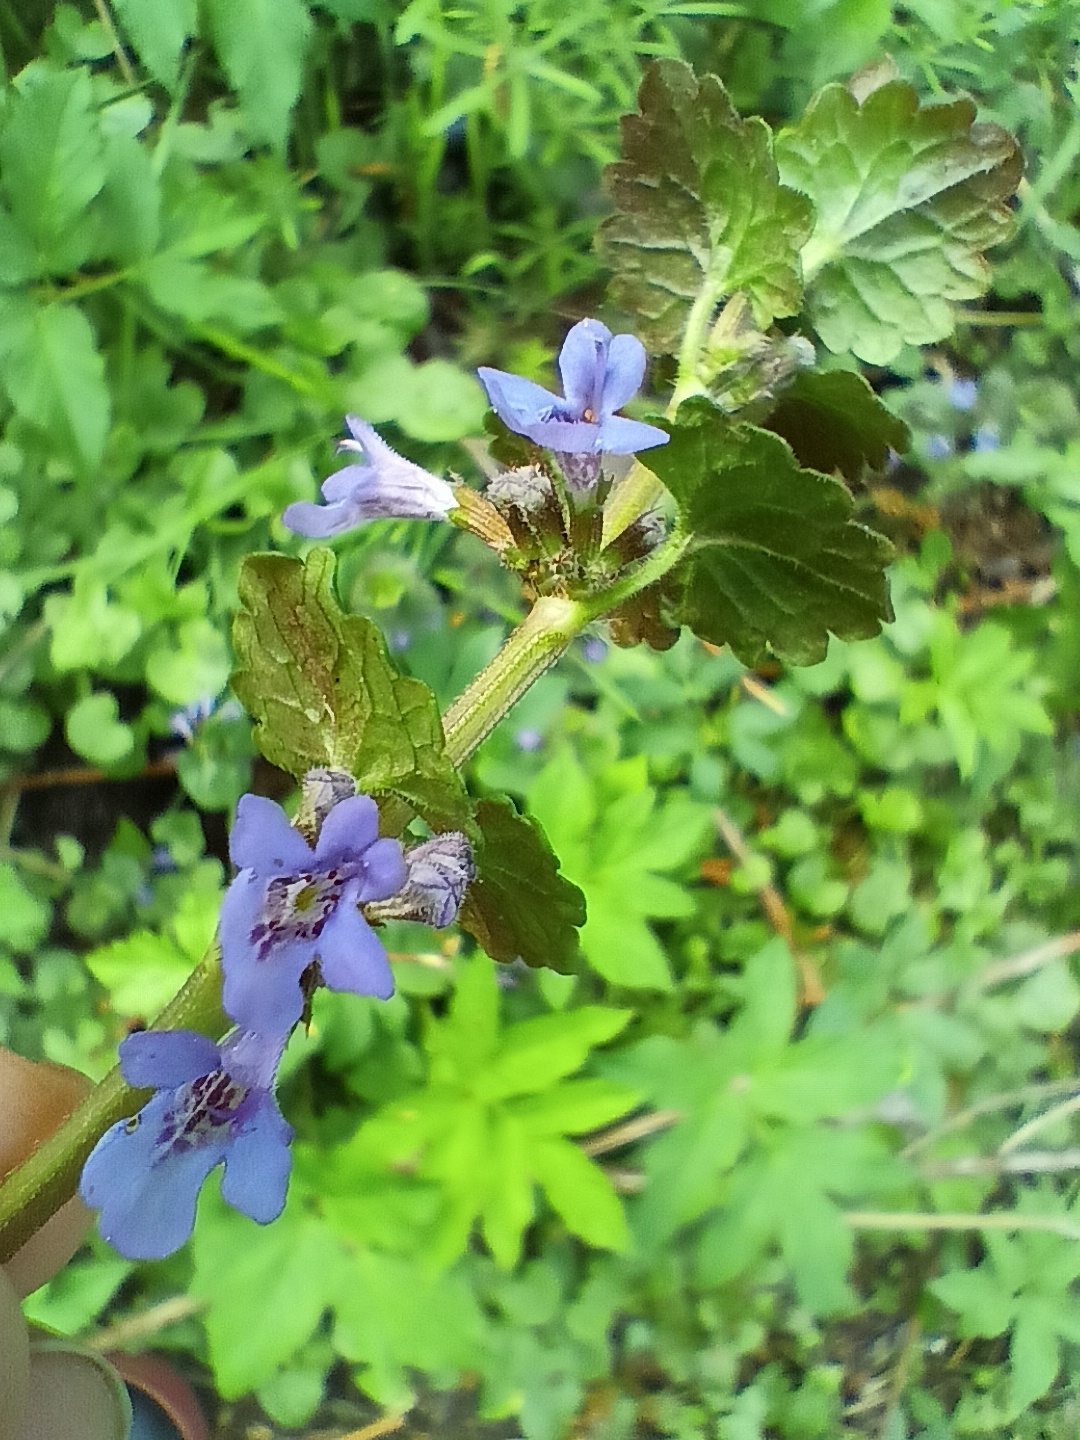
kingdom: Plantae
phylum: Tracheophyta
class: Magnoliopsida
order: Lamiales
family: Lamiaceae
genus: Glechoma
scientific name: Glechoma hederacea
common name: Ground ivy
